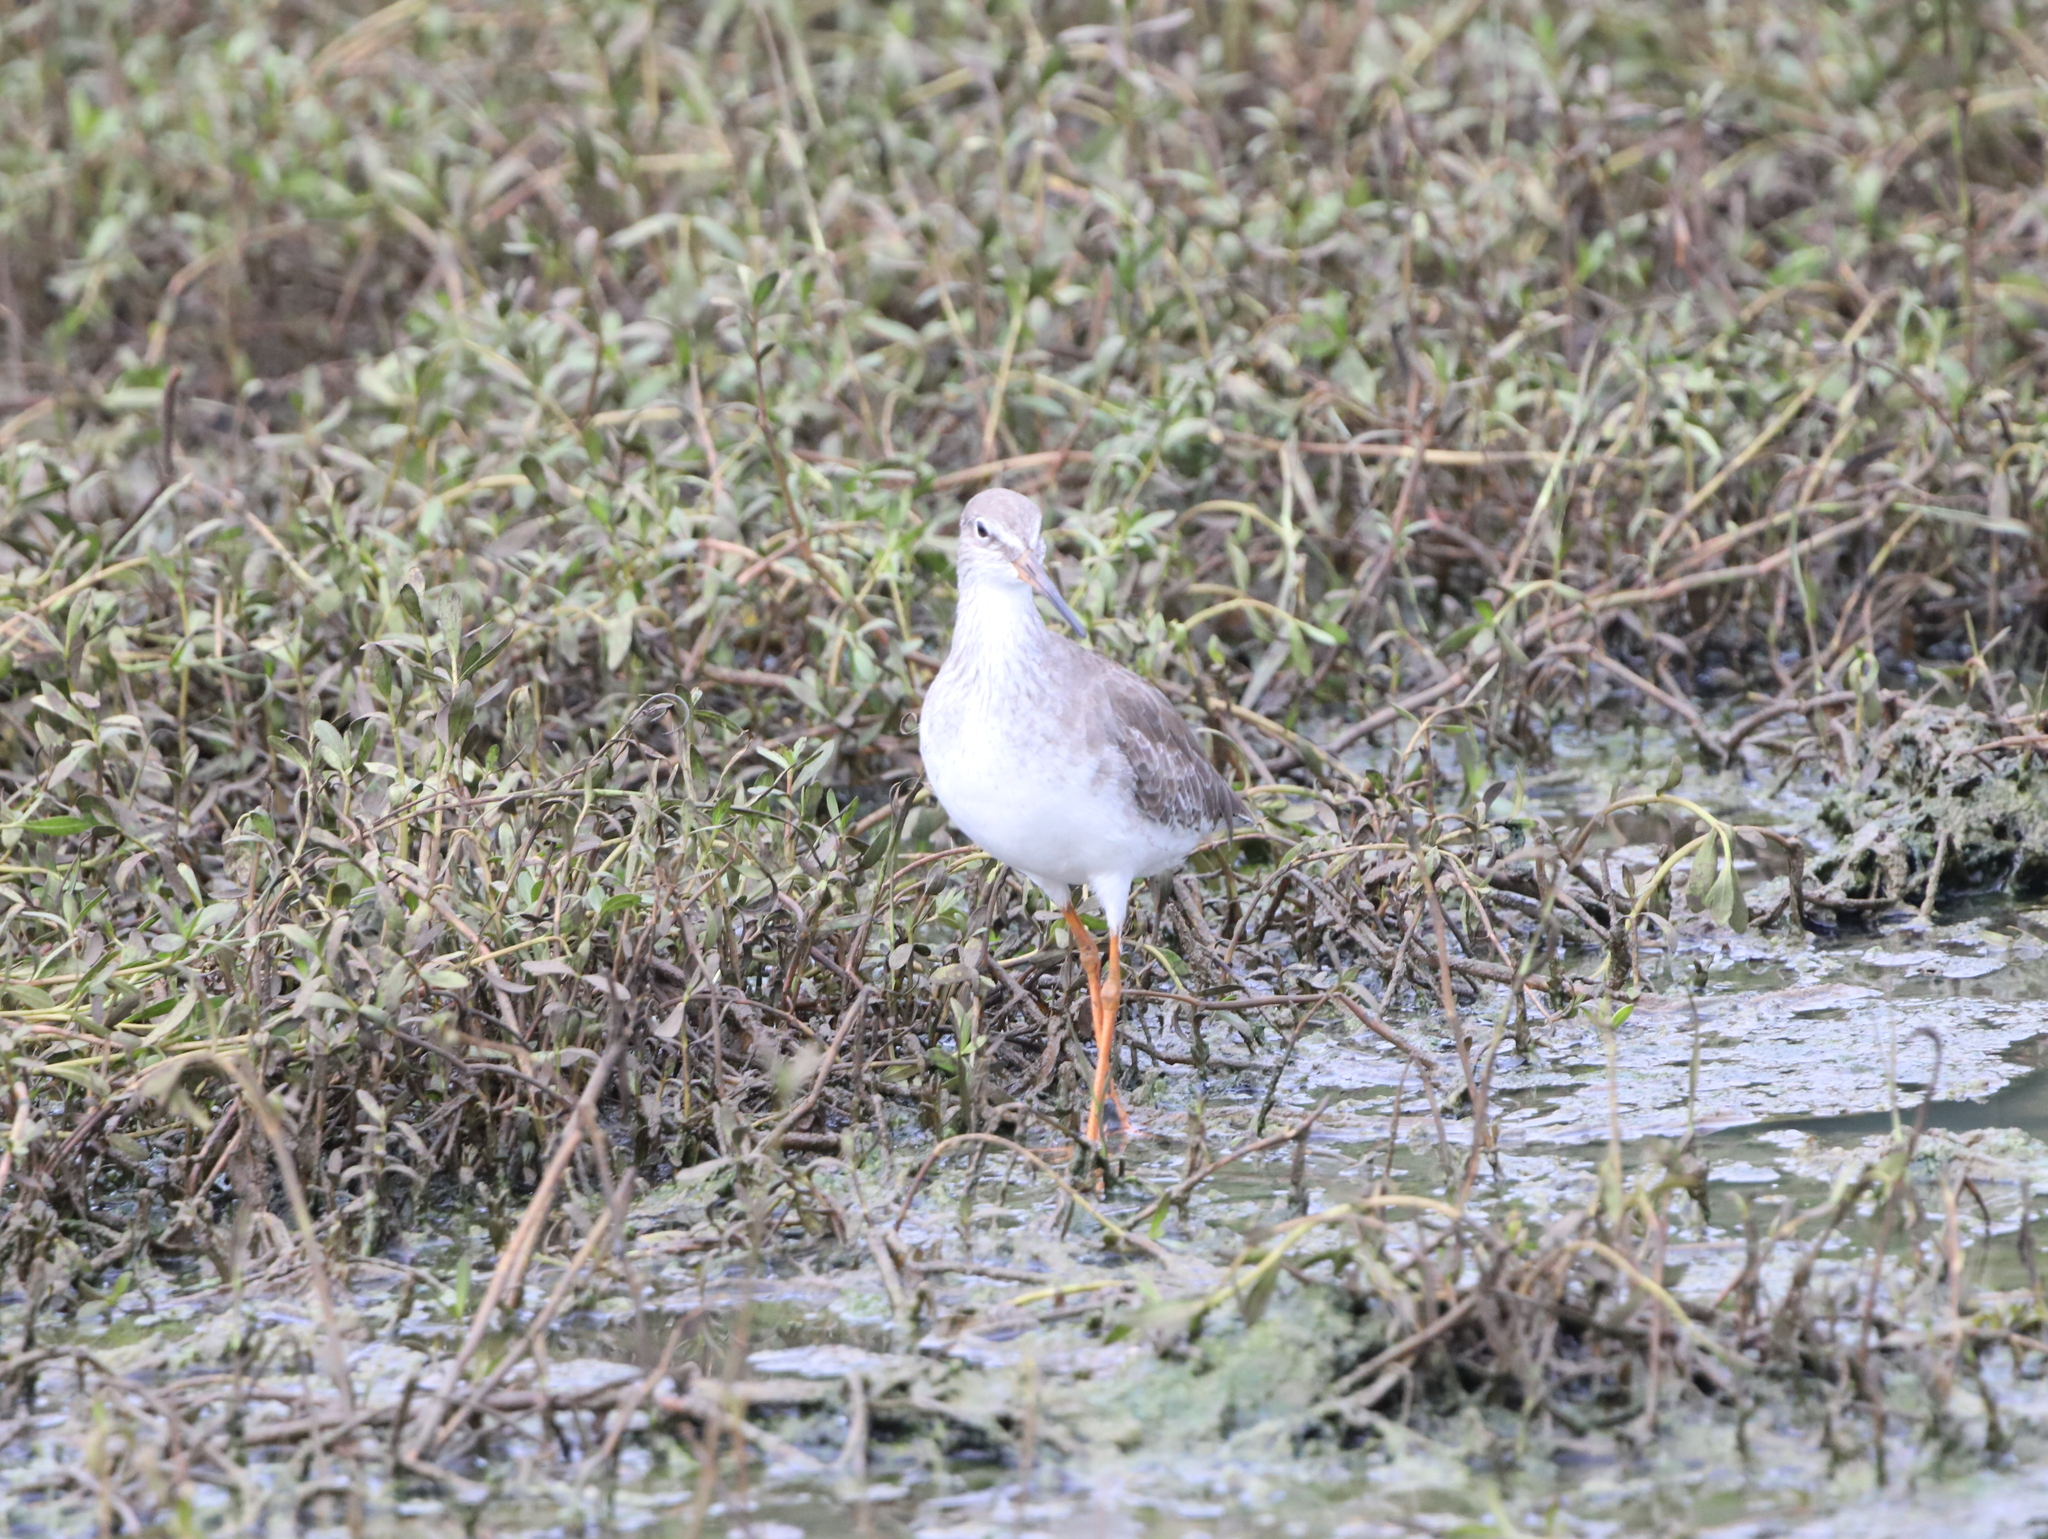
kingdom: Animalia
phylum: Chordata
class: Aves
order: Charadriiformes
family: Scolopacidae
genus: Tringa
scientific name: Tringa totanus
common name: Common redshank
